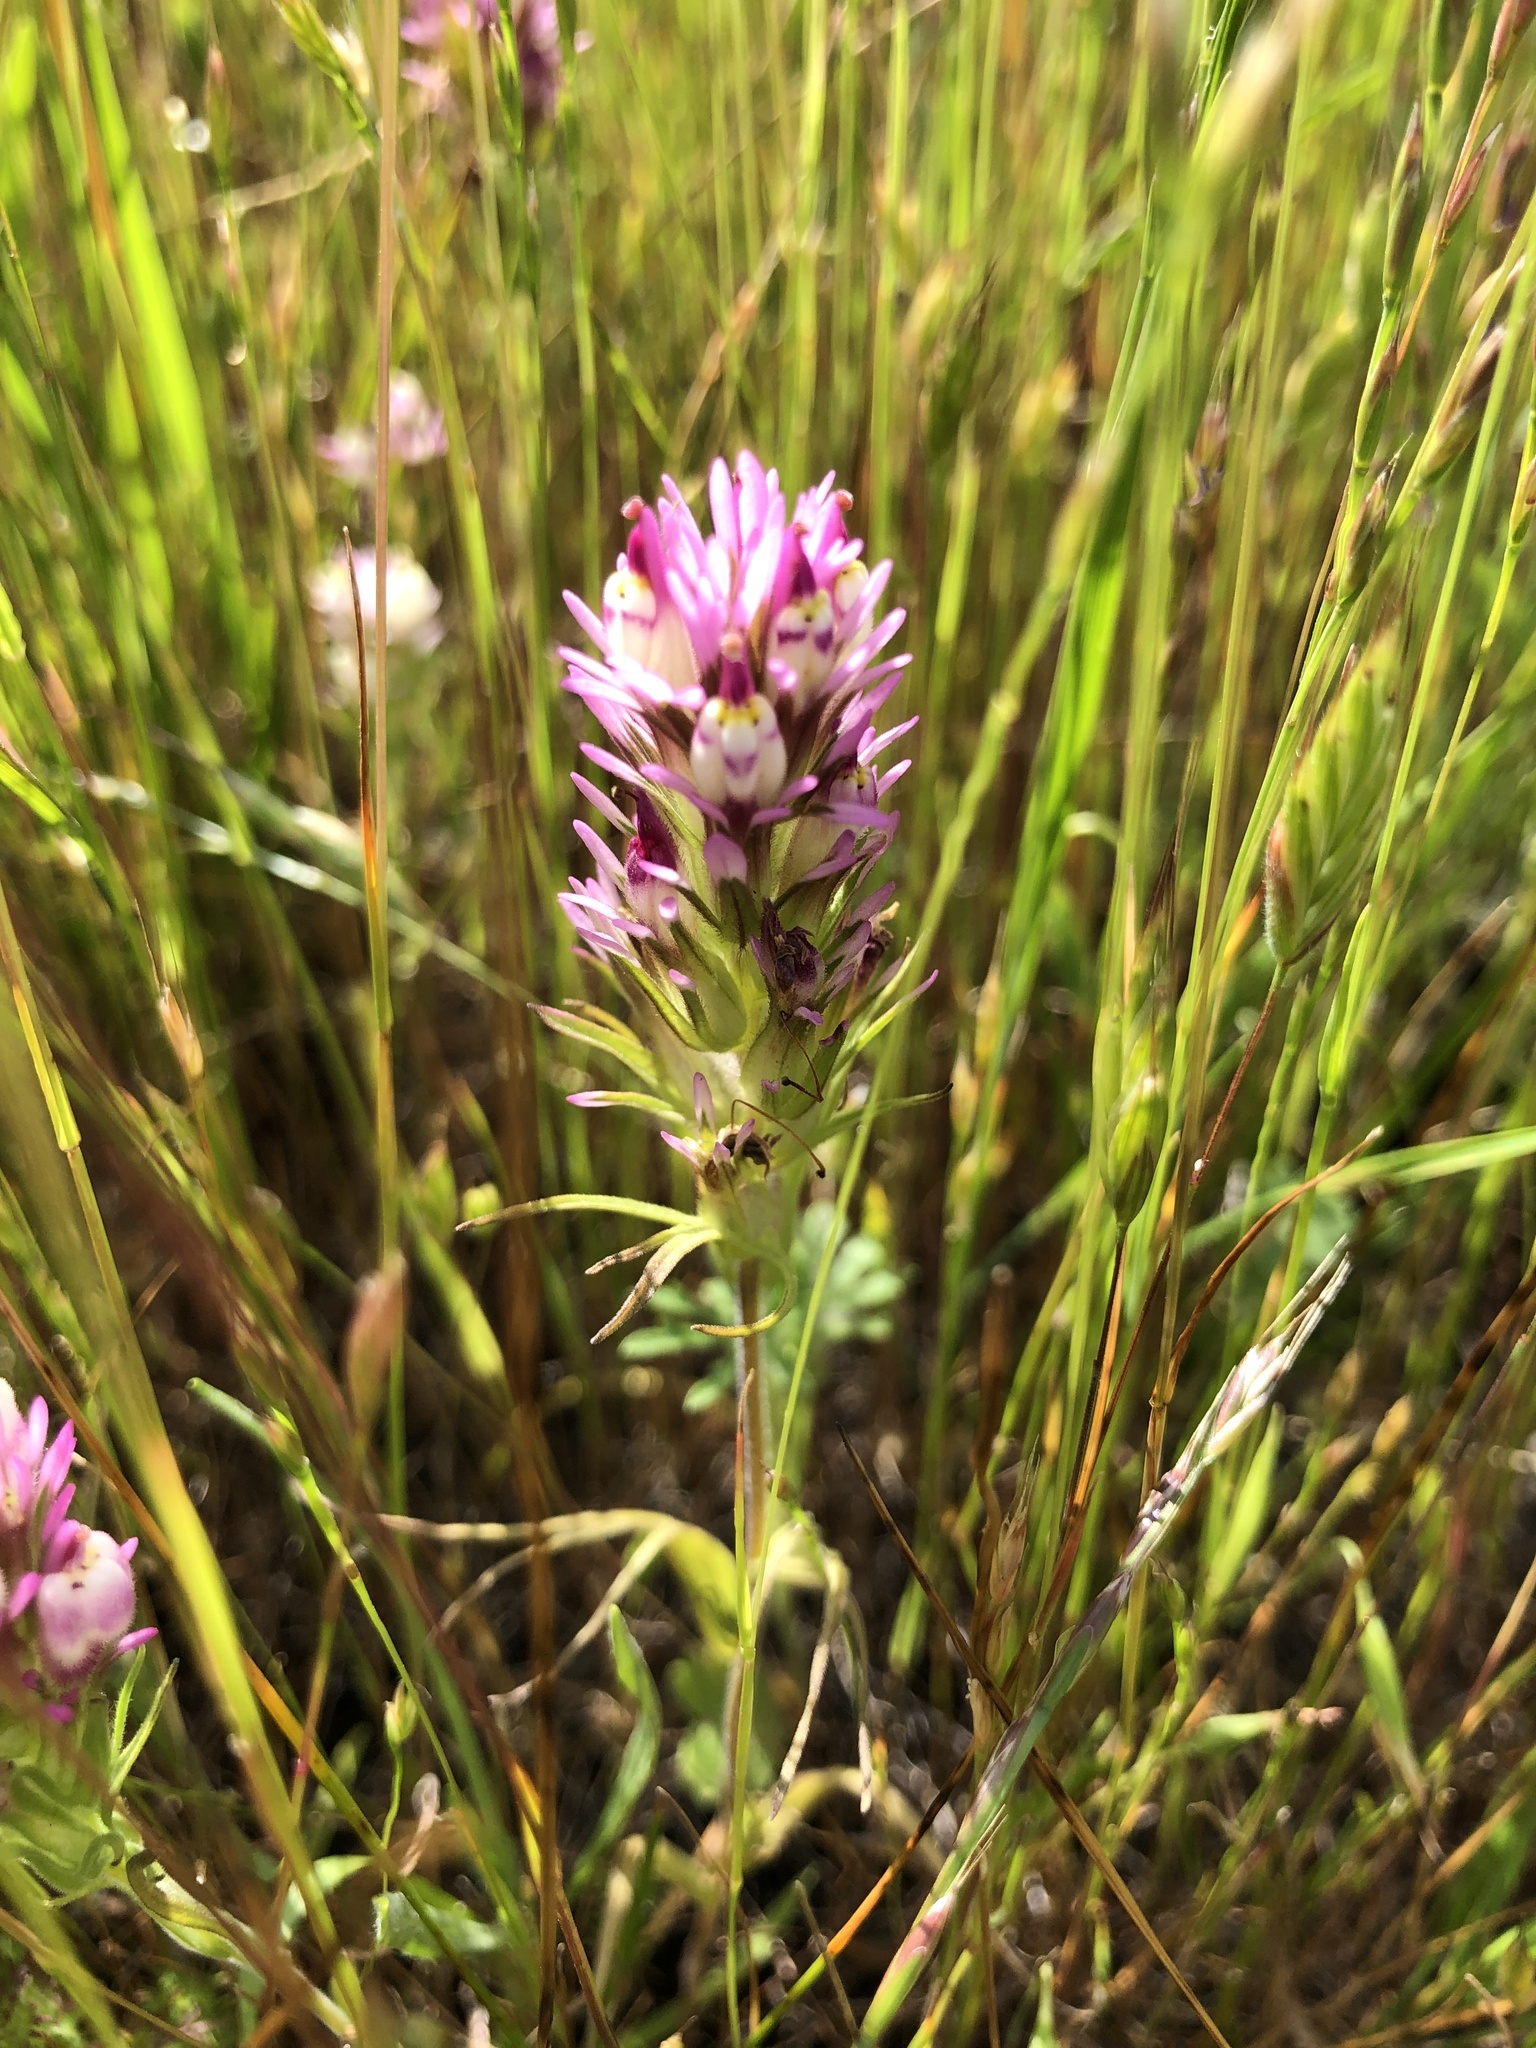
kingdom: Plantae
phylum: Tracheophyta
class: Magnoliopsida
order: Lamiales
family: Orobanchaceae
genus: Castilleja
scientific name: Castilleja densiflora
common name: Dense-flower indian paintbrush
